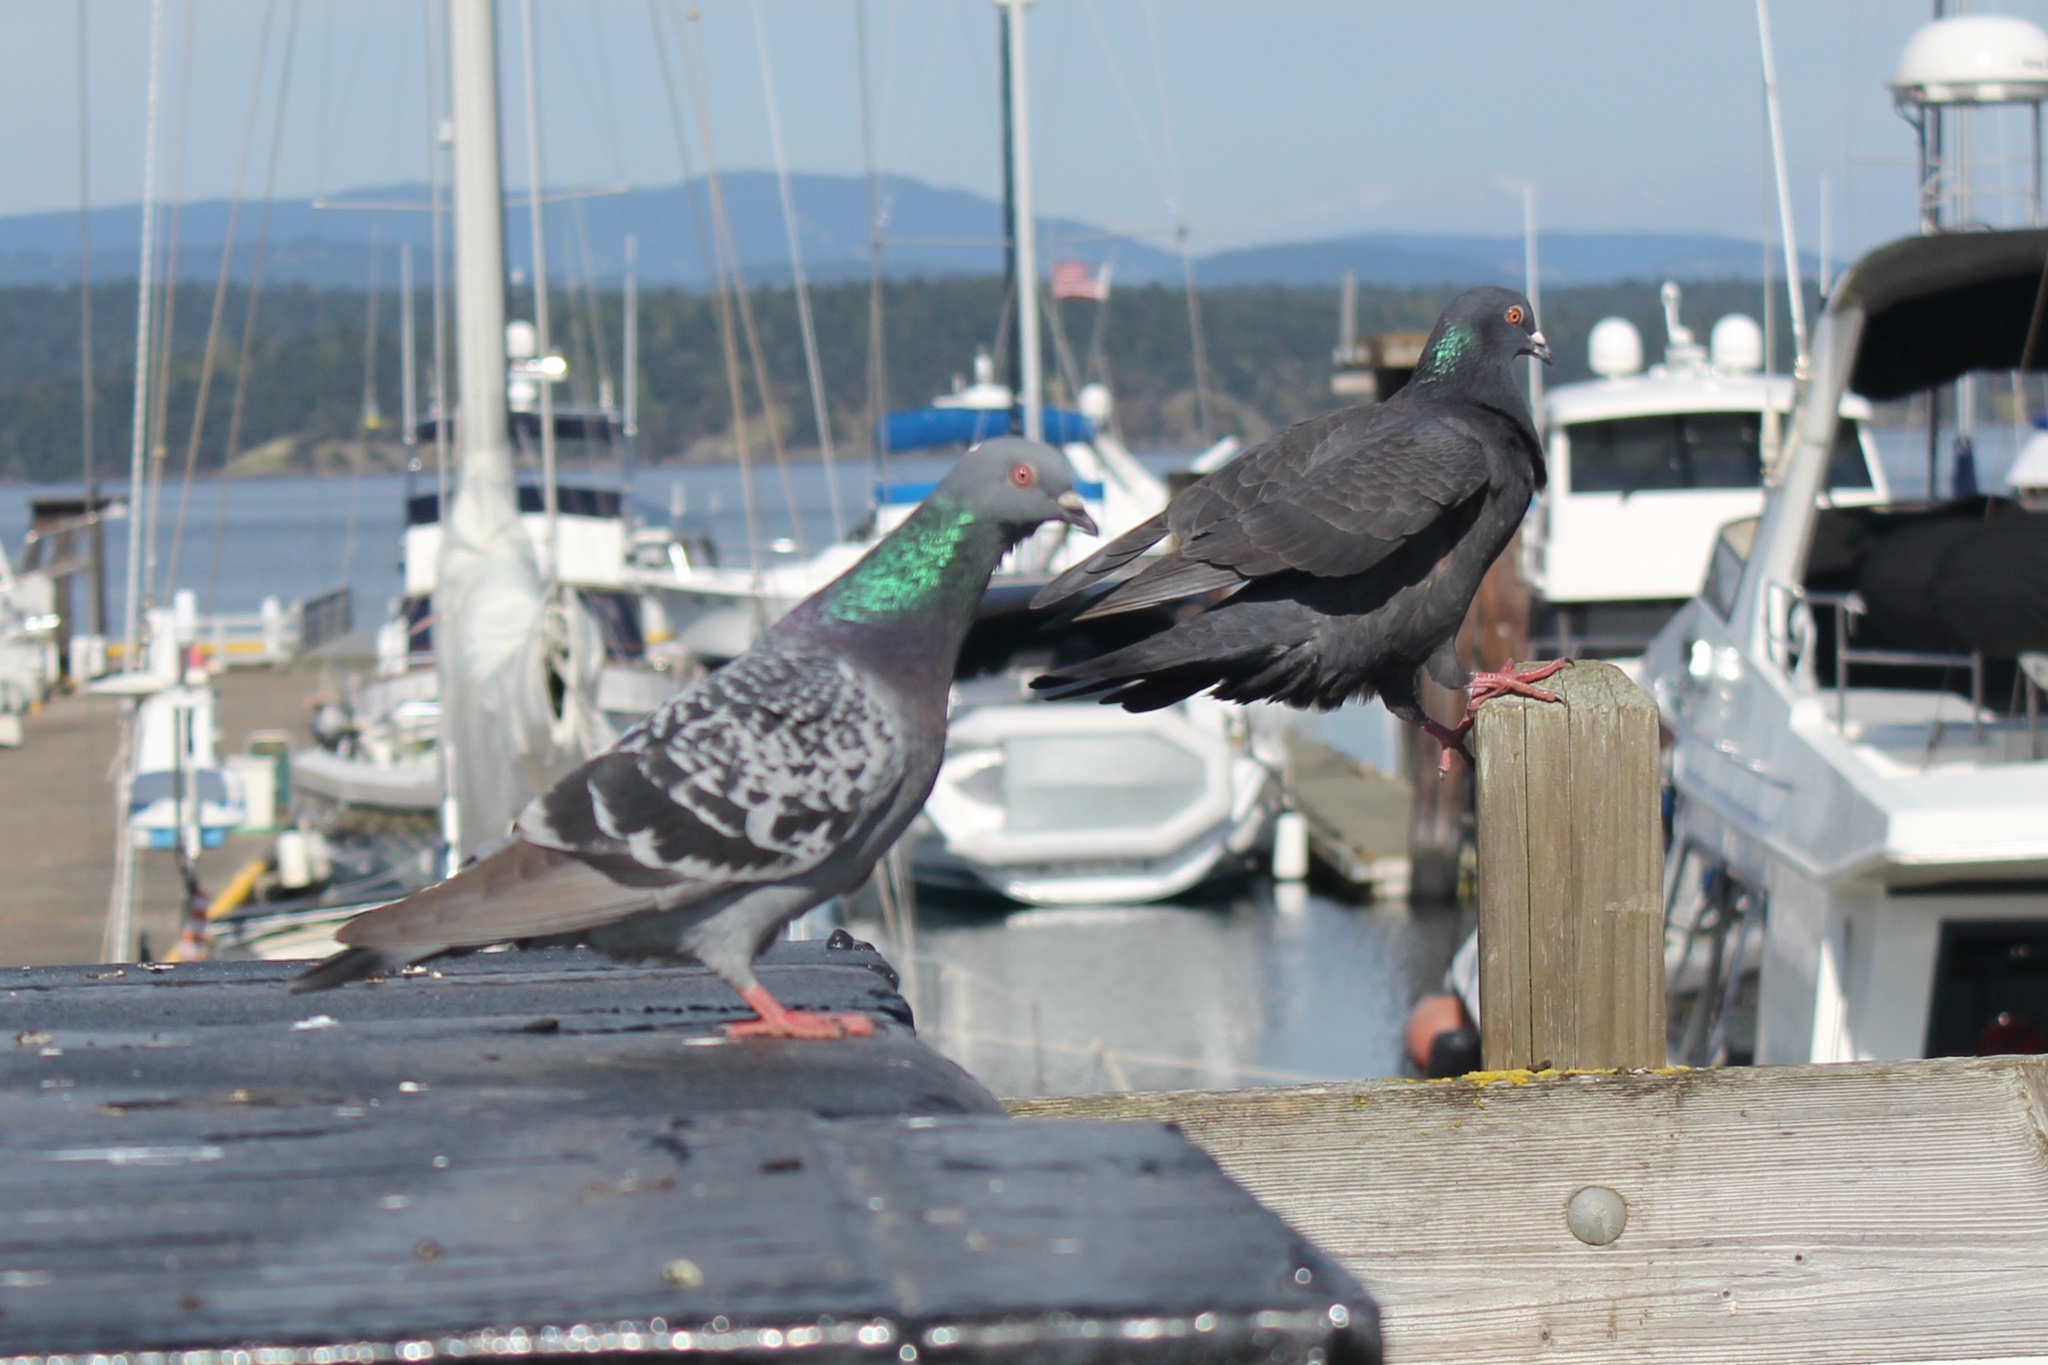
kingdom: Animalia
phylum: Chordata
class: Aves
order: Columbiformes
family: Columbidae
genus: Columba
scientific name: Columba livia
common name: Rock pigeon
